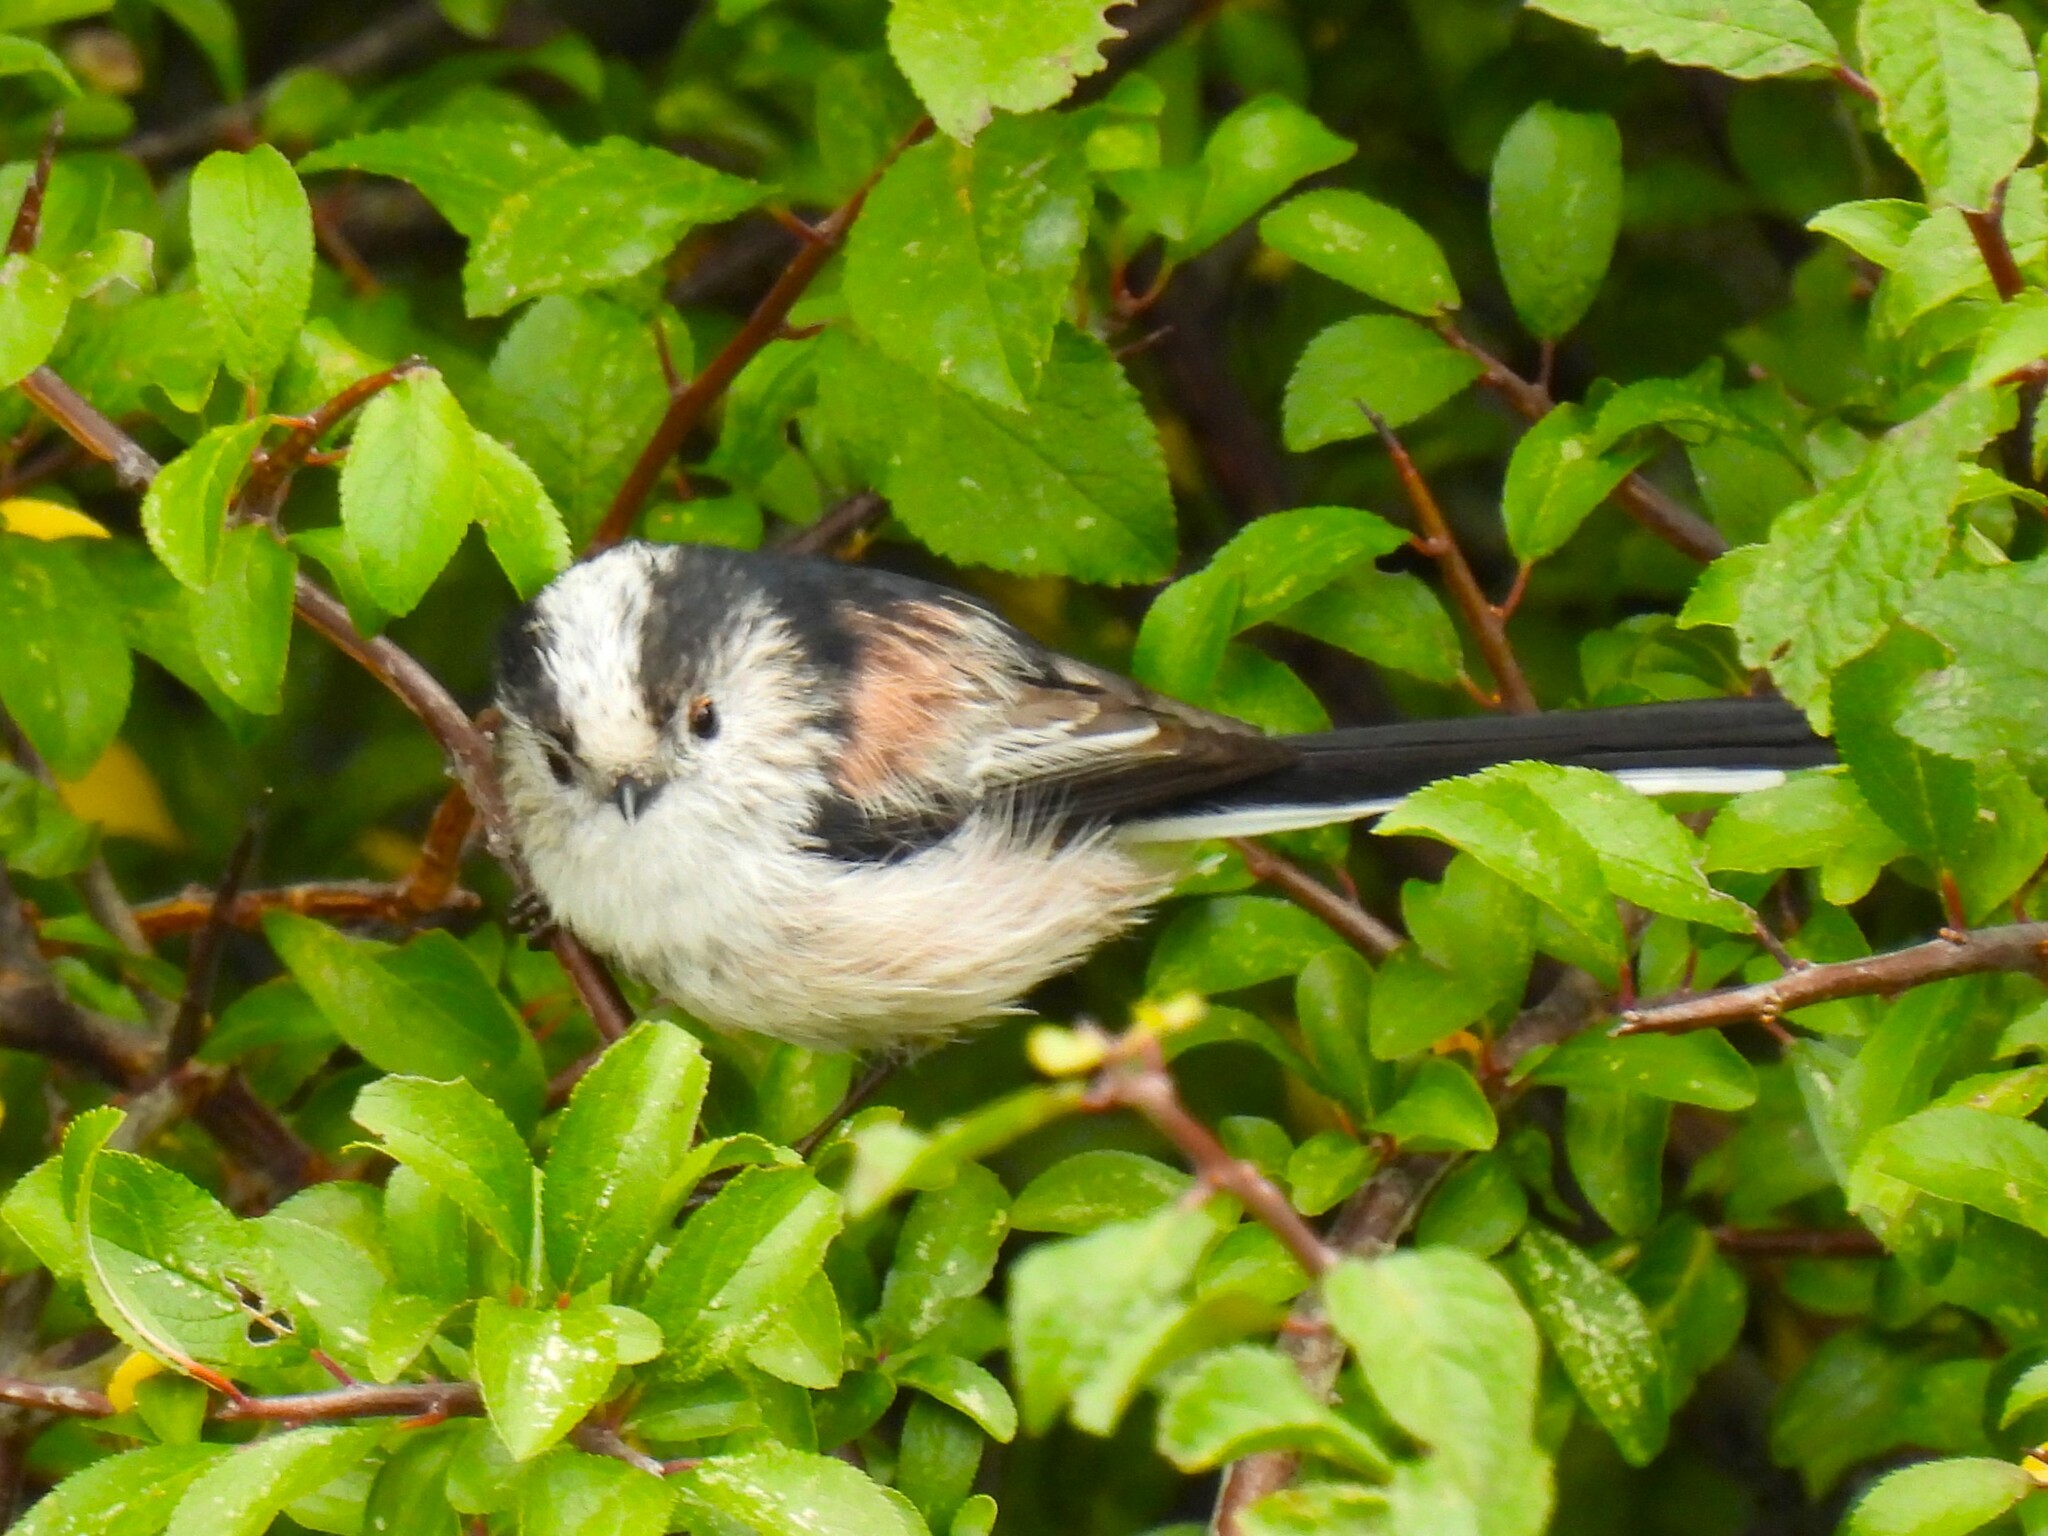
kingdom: Animalia
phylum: Chordata
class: Aves
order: Passeriformes
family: Aegithalidae
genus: Aegithalos
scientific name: Aegithalos caudatus
